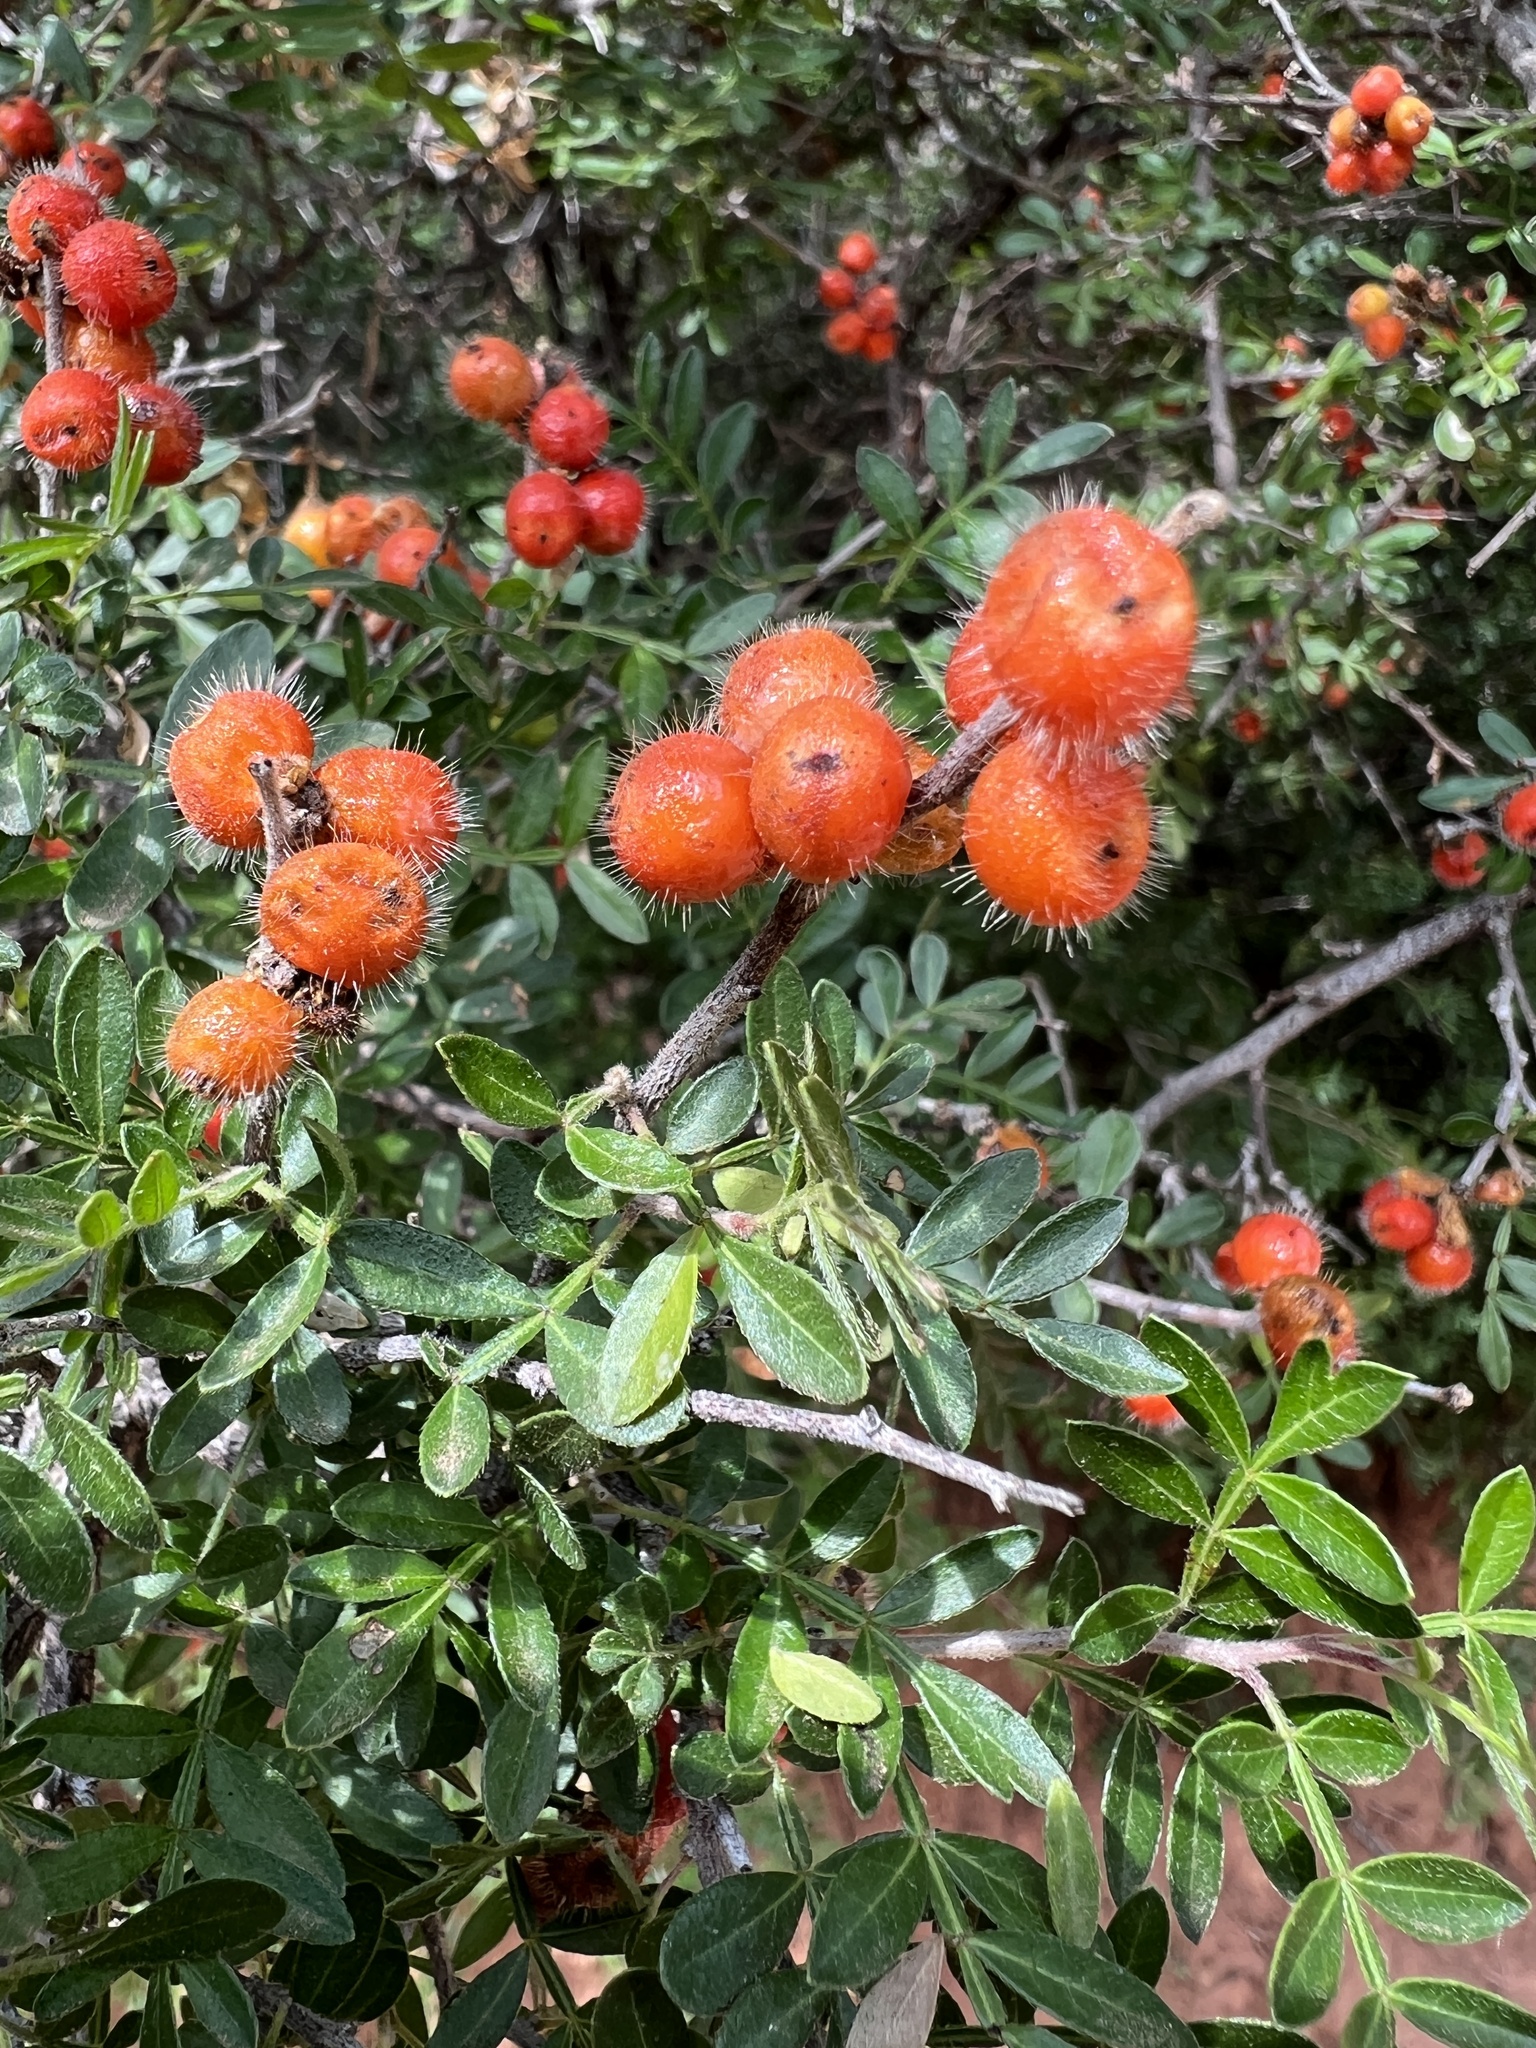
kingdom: Plantae
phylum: Tracheophyta
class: Magnoliopsida
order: Sapindales
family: Anacardiaceae
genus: Rhus
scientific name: Rhus microphylla
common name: Desert sumac
